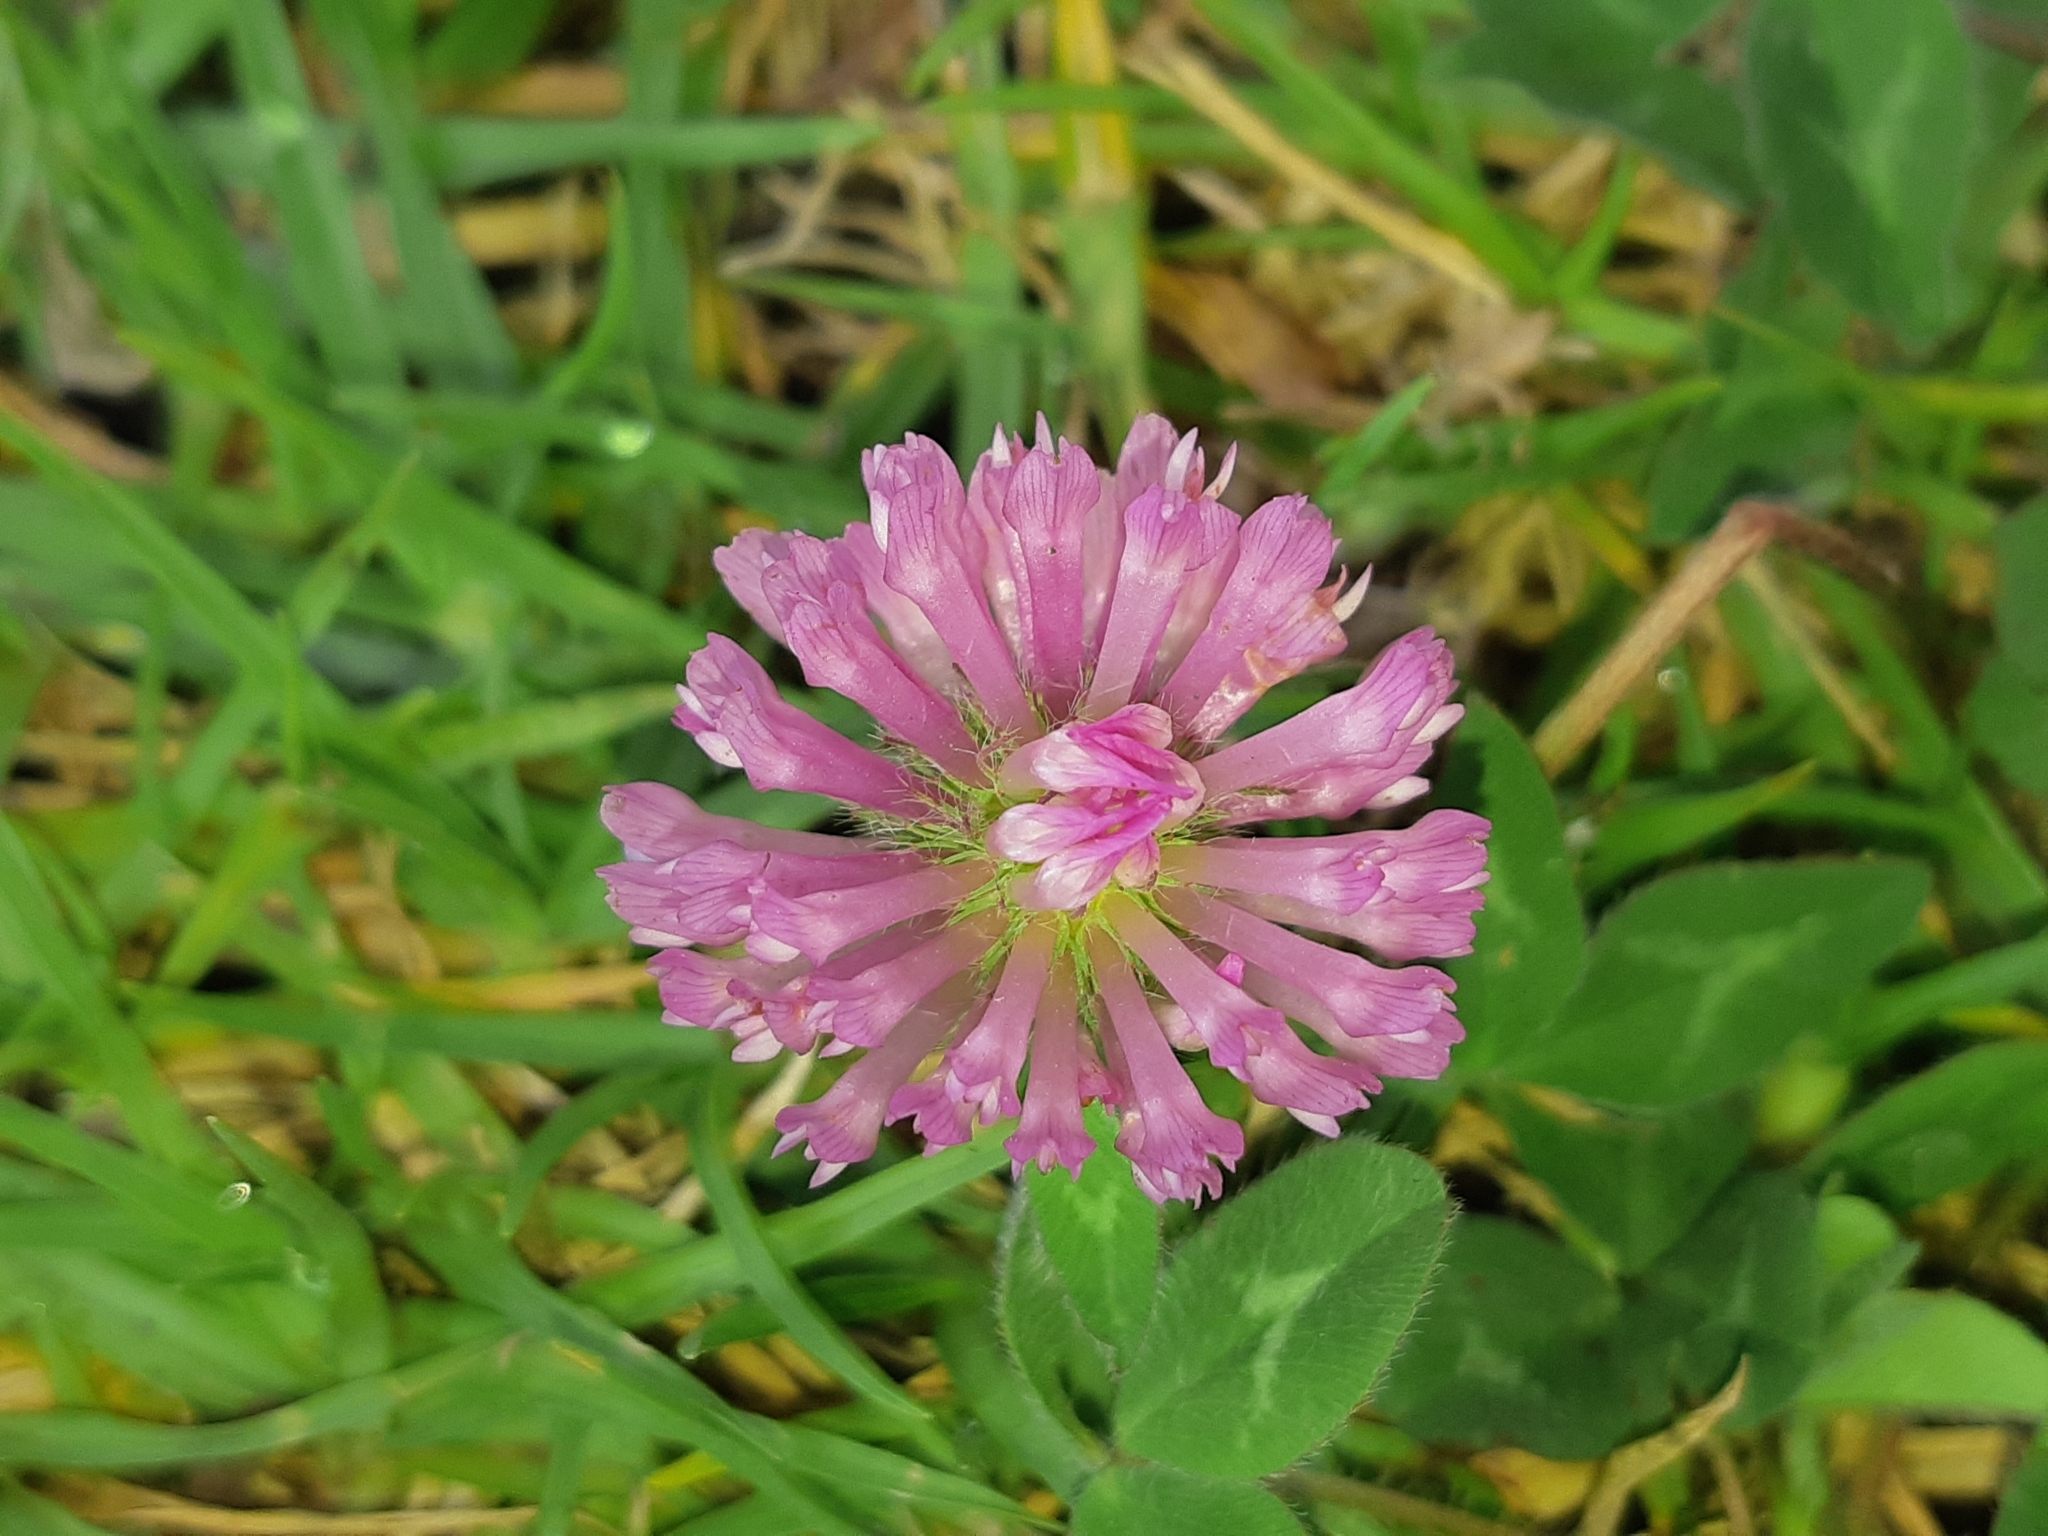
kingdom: Plantae
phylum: Tracheophyta
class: Magnoliopsida
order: Fabales
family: Fabaceae
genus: Trifolium
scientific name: Trifolium pratense
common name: Red clover
